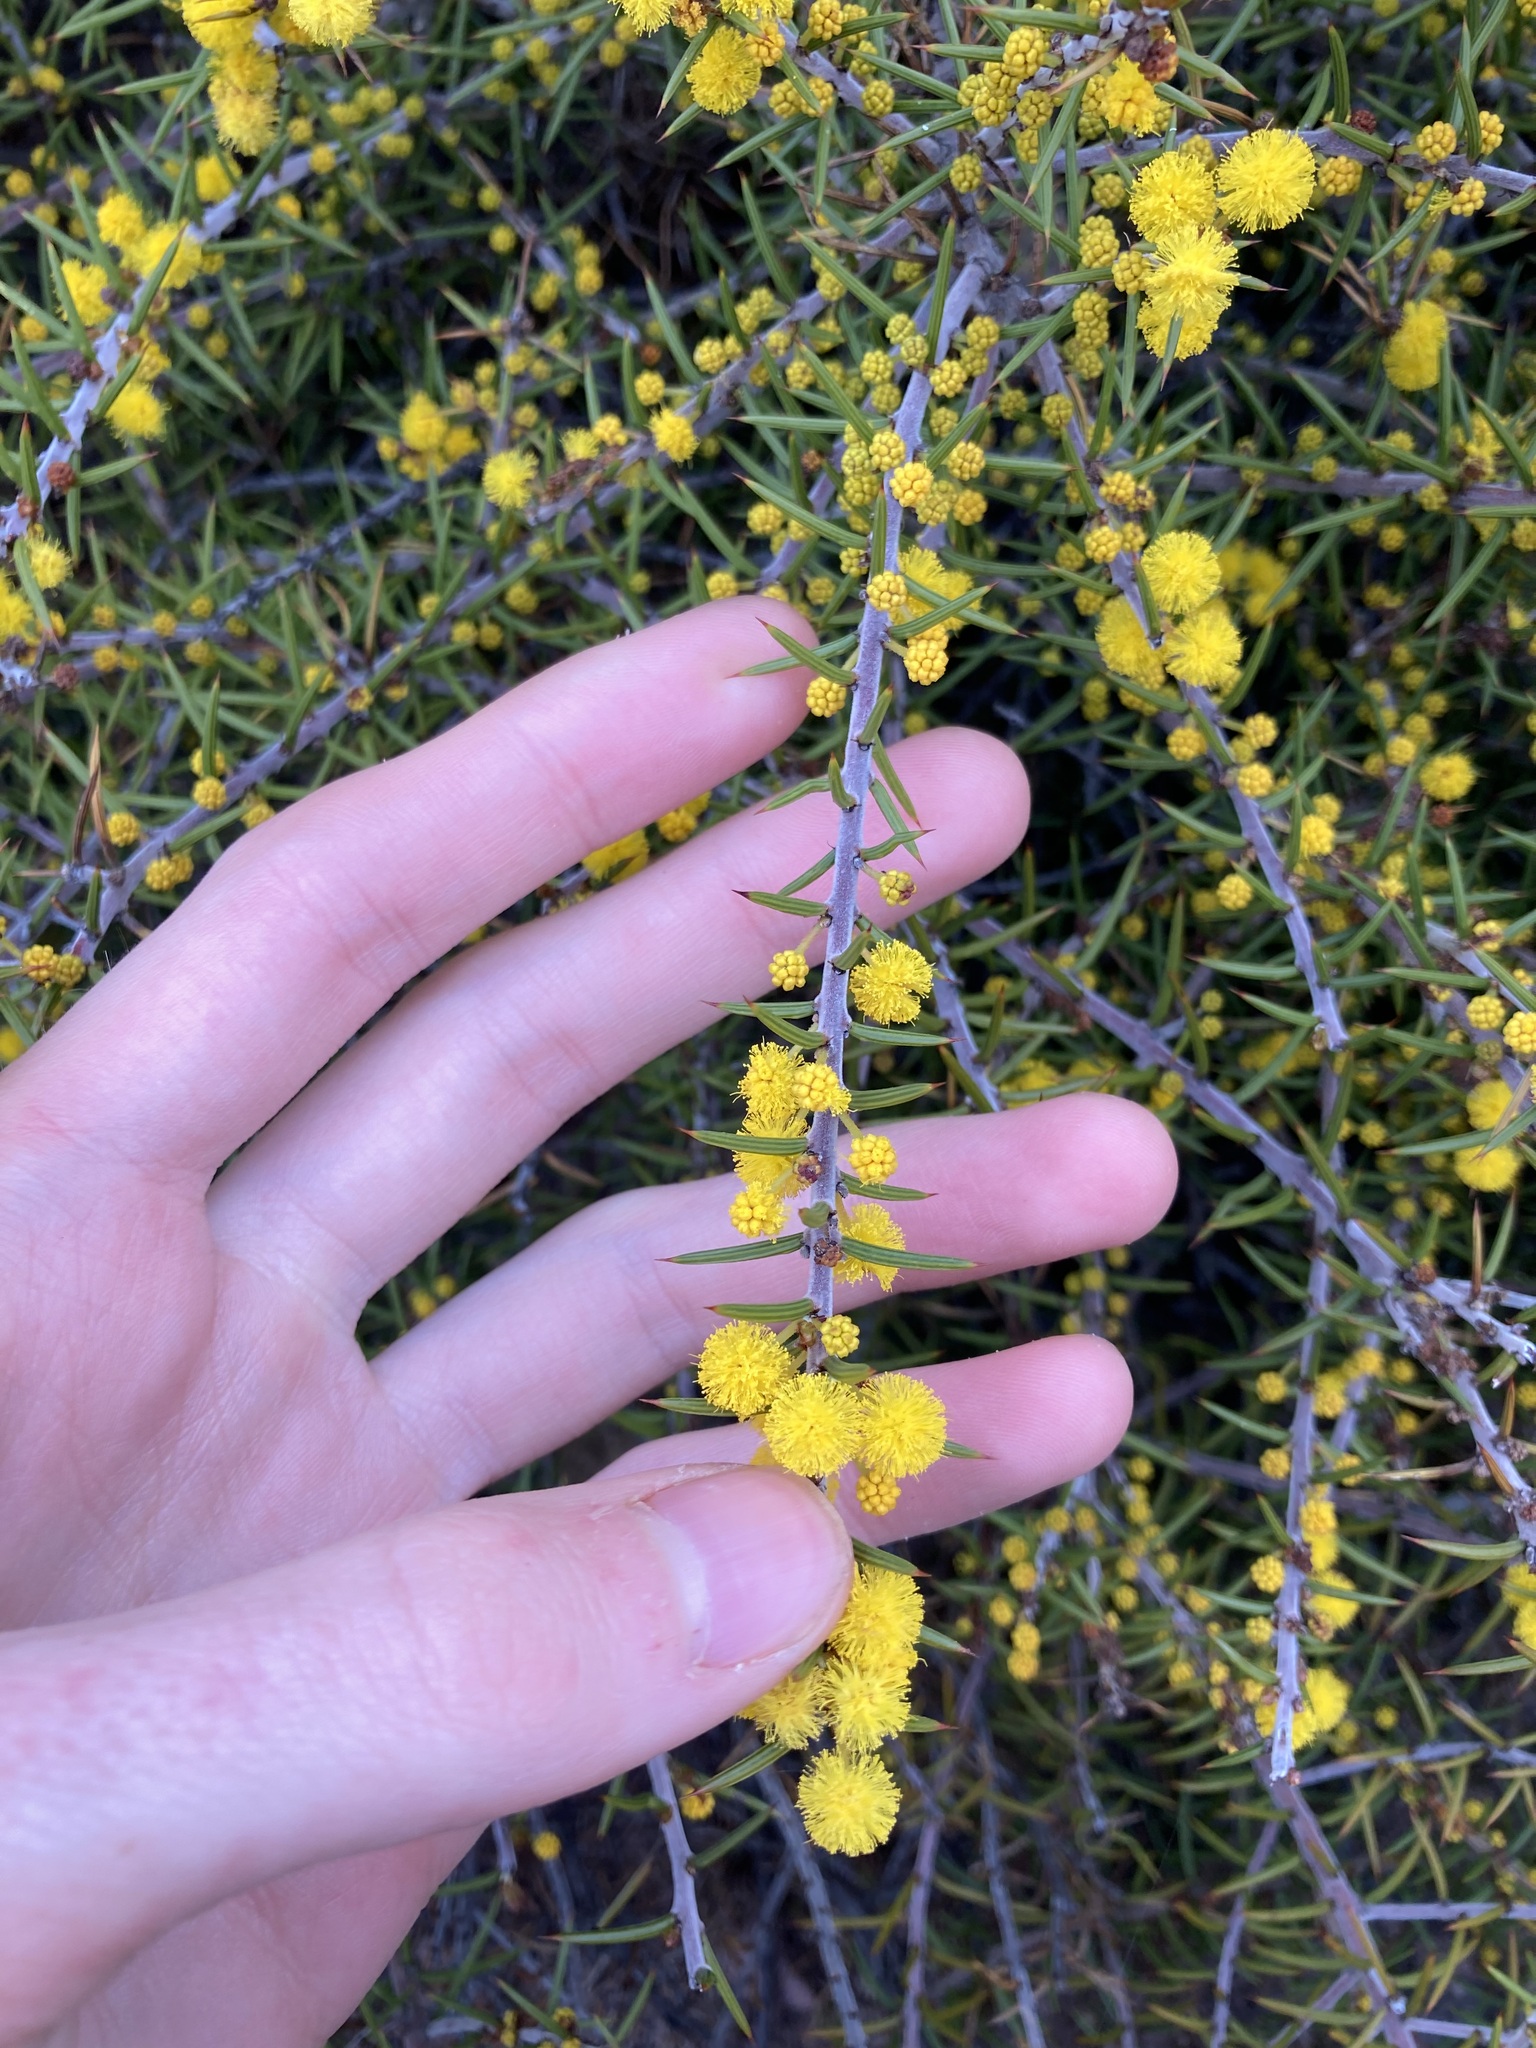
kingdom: Plantae
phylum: Tracheophyta
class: Magnoliopsida
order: Fabales
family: Fabaceae
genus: Acacia
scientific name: Acacia declinata
